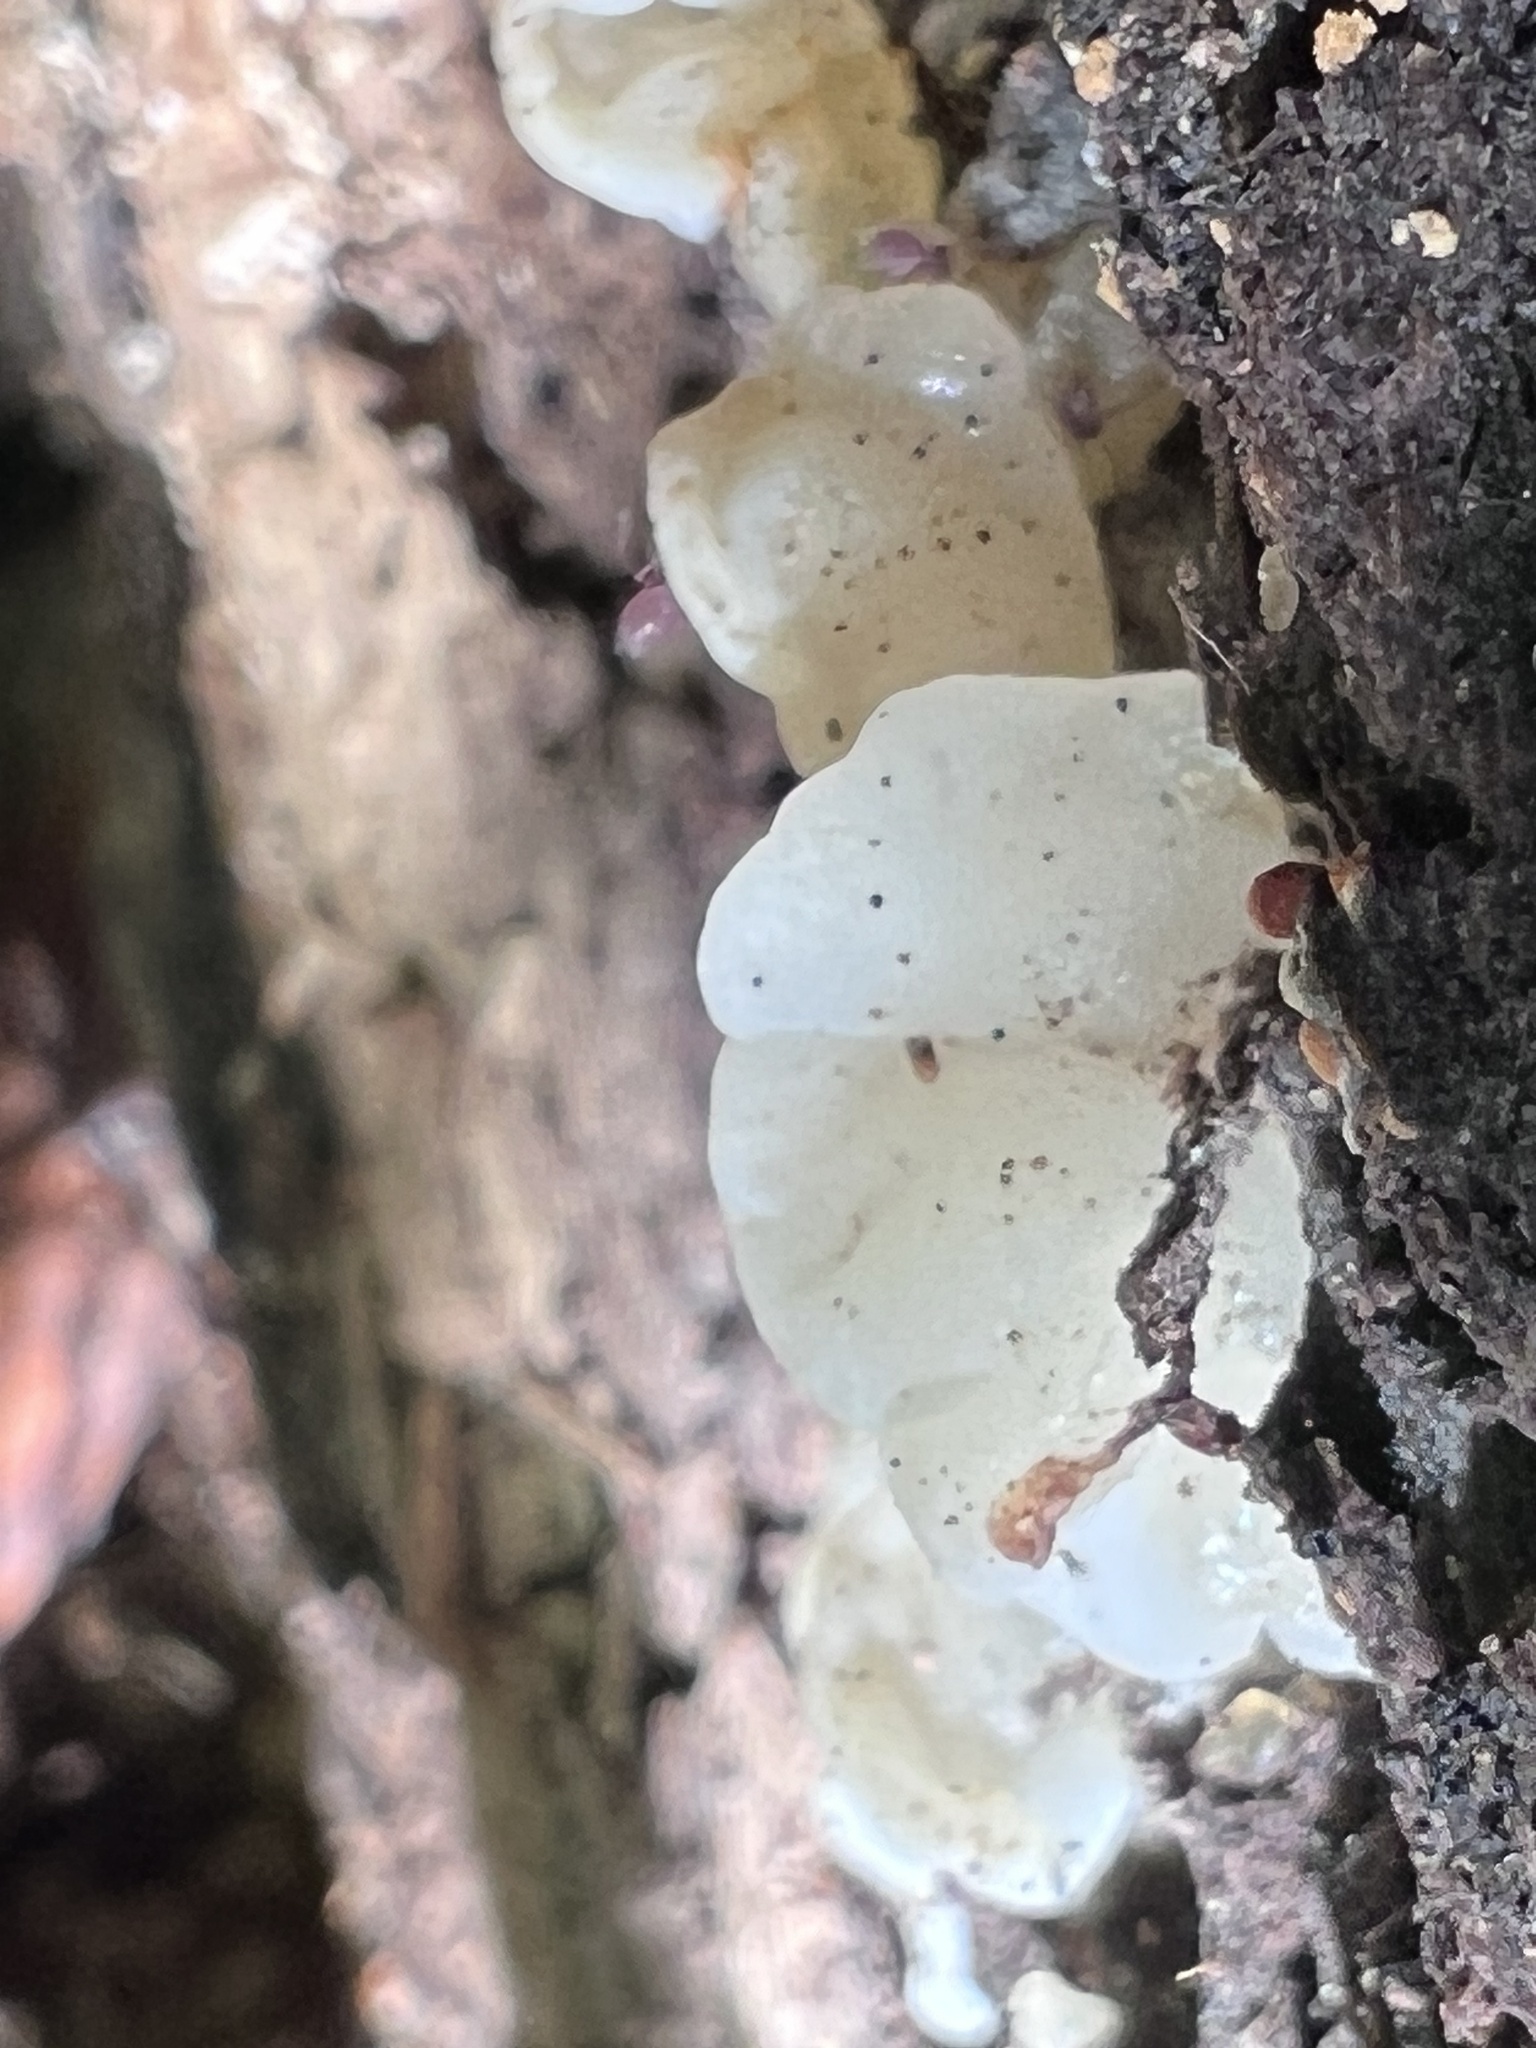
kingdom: Fungi
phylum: Basidiomycota
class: Agaricomycetes
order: Auriculariales
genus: Ductifera
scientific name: Ductifera pululahuana
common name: White jelly fungus
